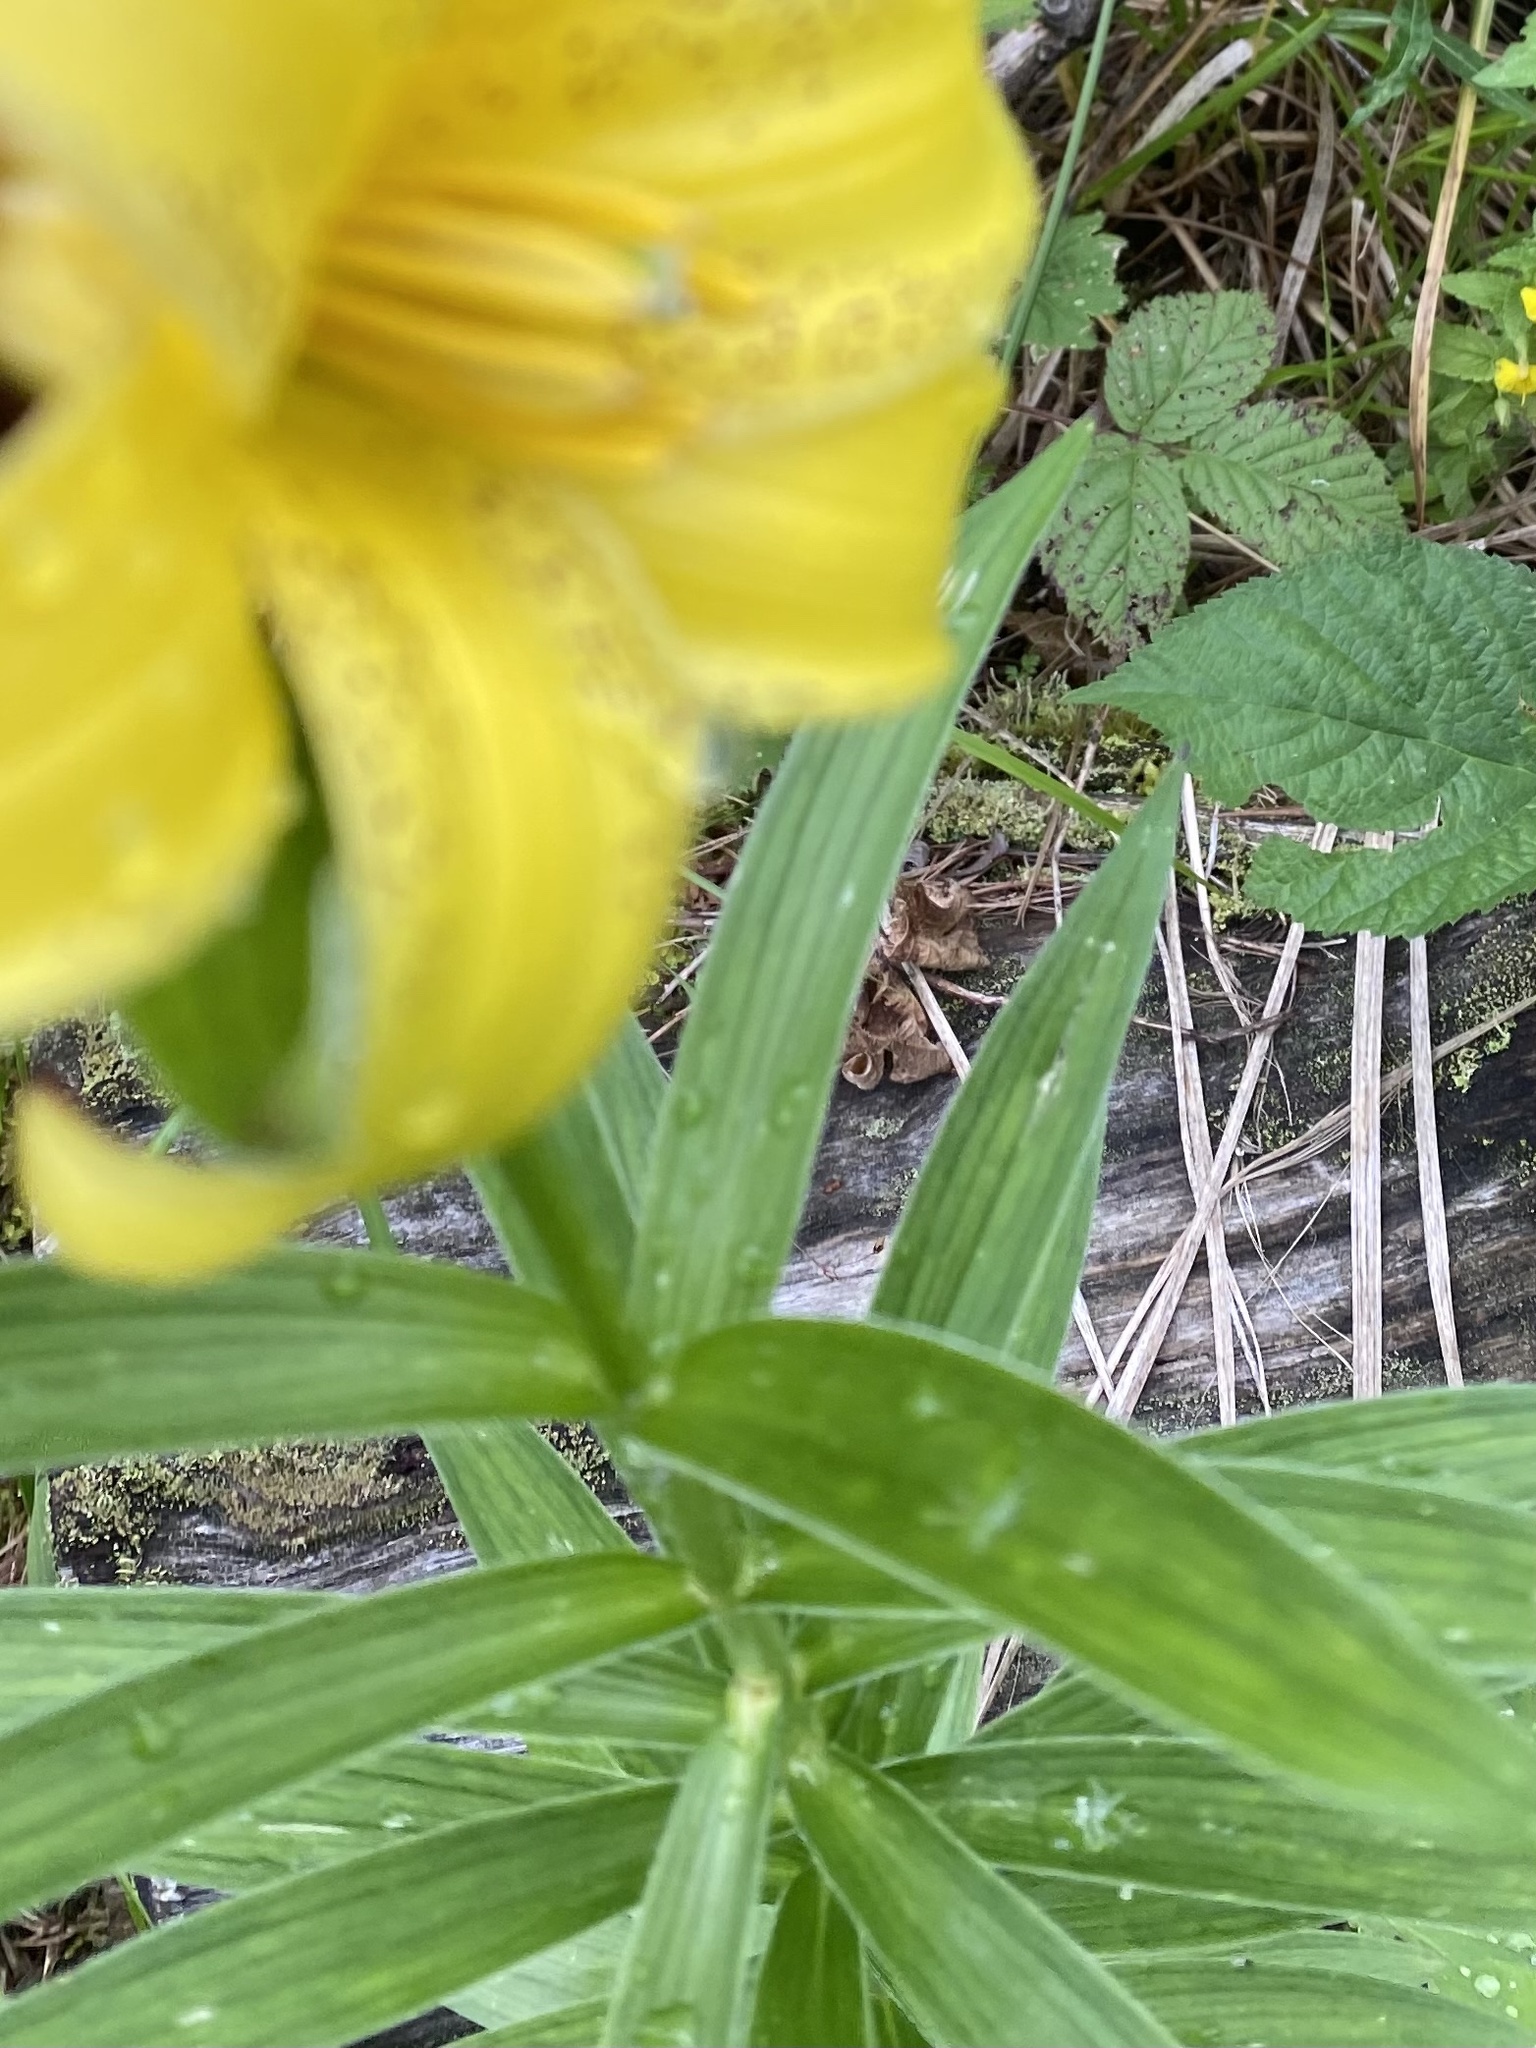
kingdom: Plantae
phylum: Tracheophyta
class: Liliopsida
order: Liliales
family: Liliaceae
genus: Lilium
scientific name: Lilium monadelphum
